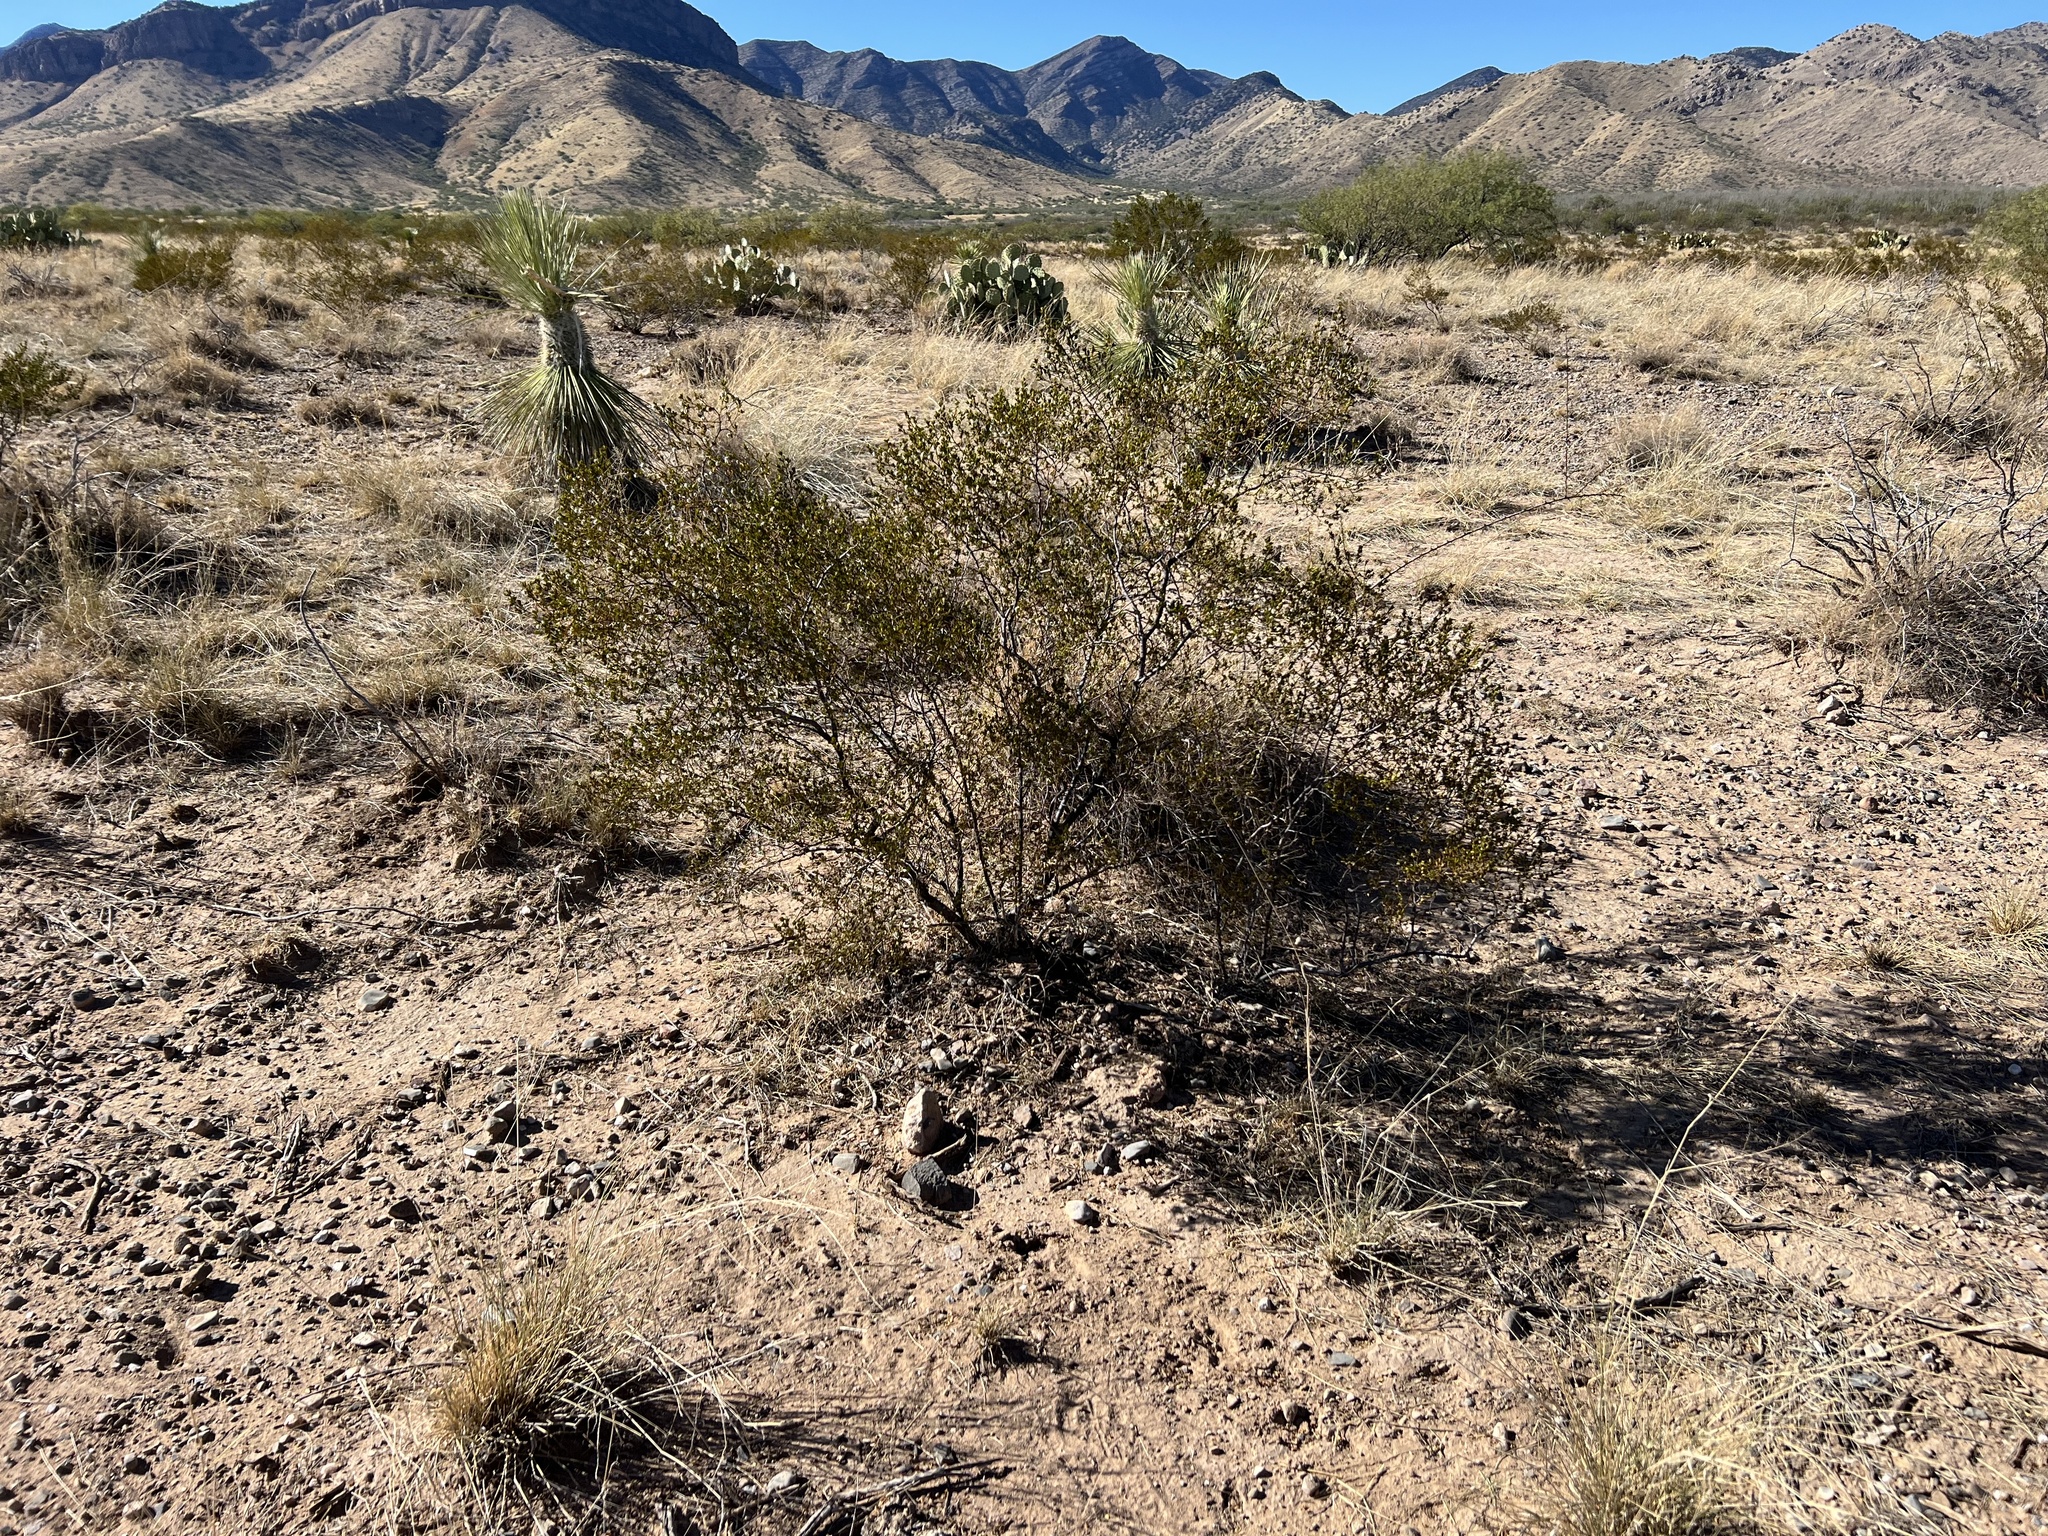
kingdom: Plantae
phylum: Tracheophyta
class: Magnoliopsida
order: Zygophyllales
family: Zygophyllaceae
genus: Larrea
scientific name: Larrea tridentata
